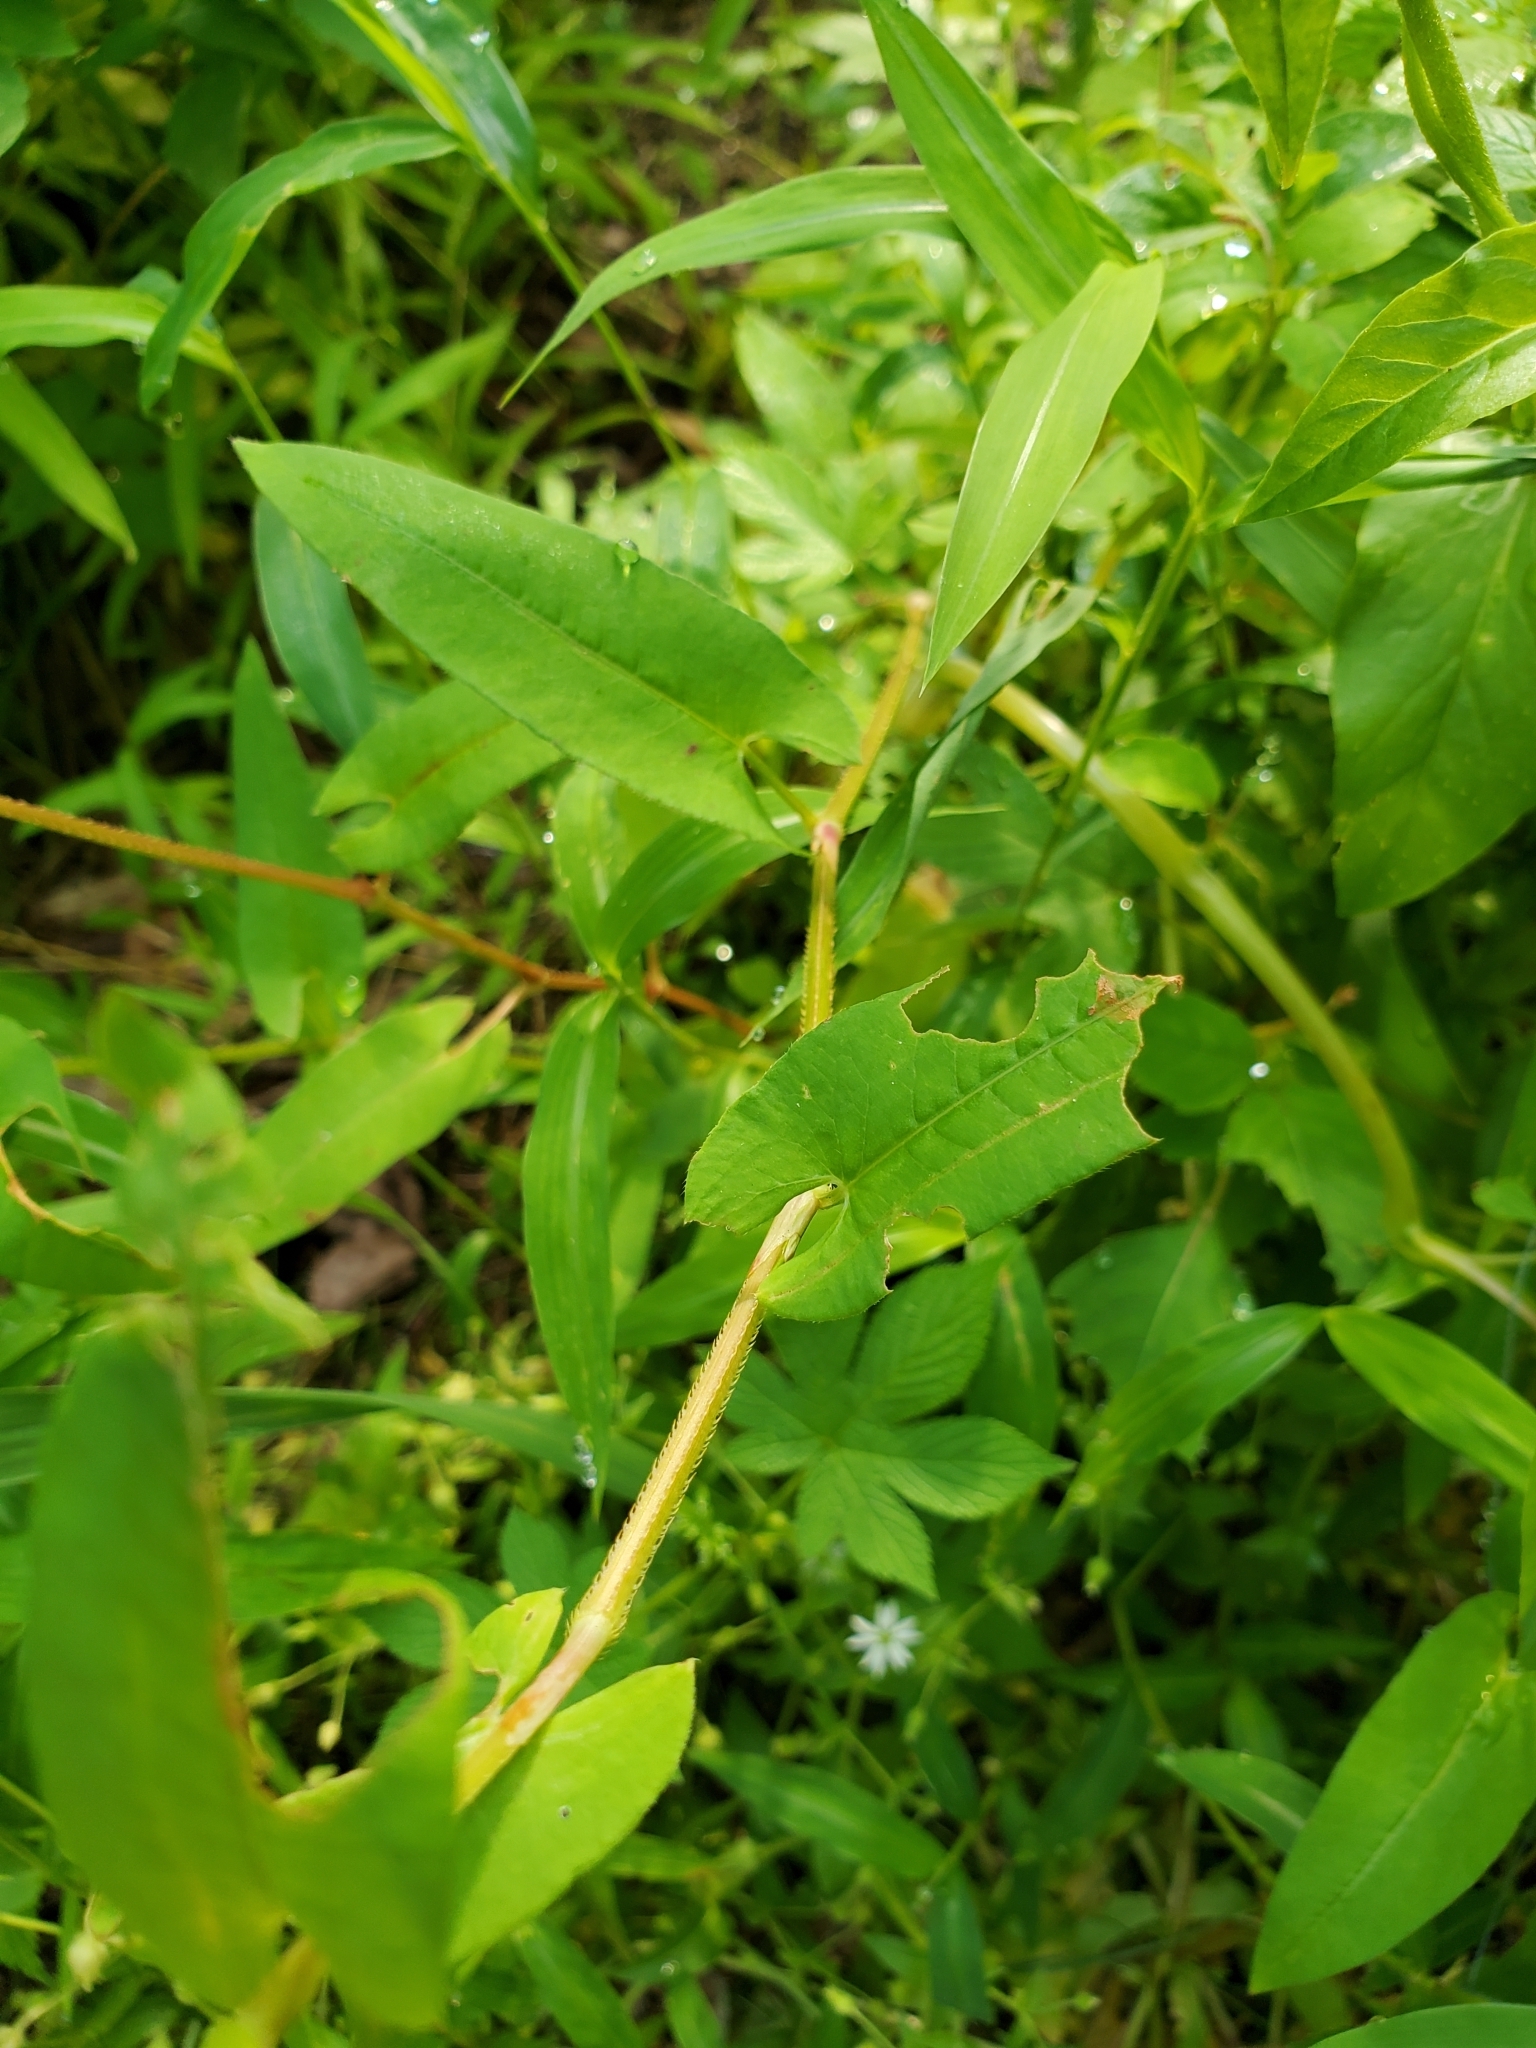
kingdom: Plantae
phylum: Tracheophyta
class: Magnoliopsida
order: Caryophyllales
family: Polygonaceae
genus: Persicaria
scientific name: Persicaria sagittata
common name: American tearthumb
